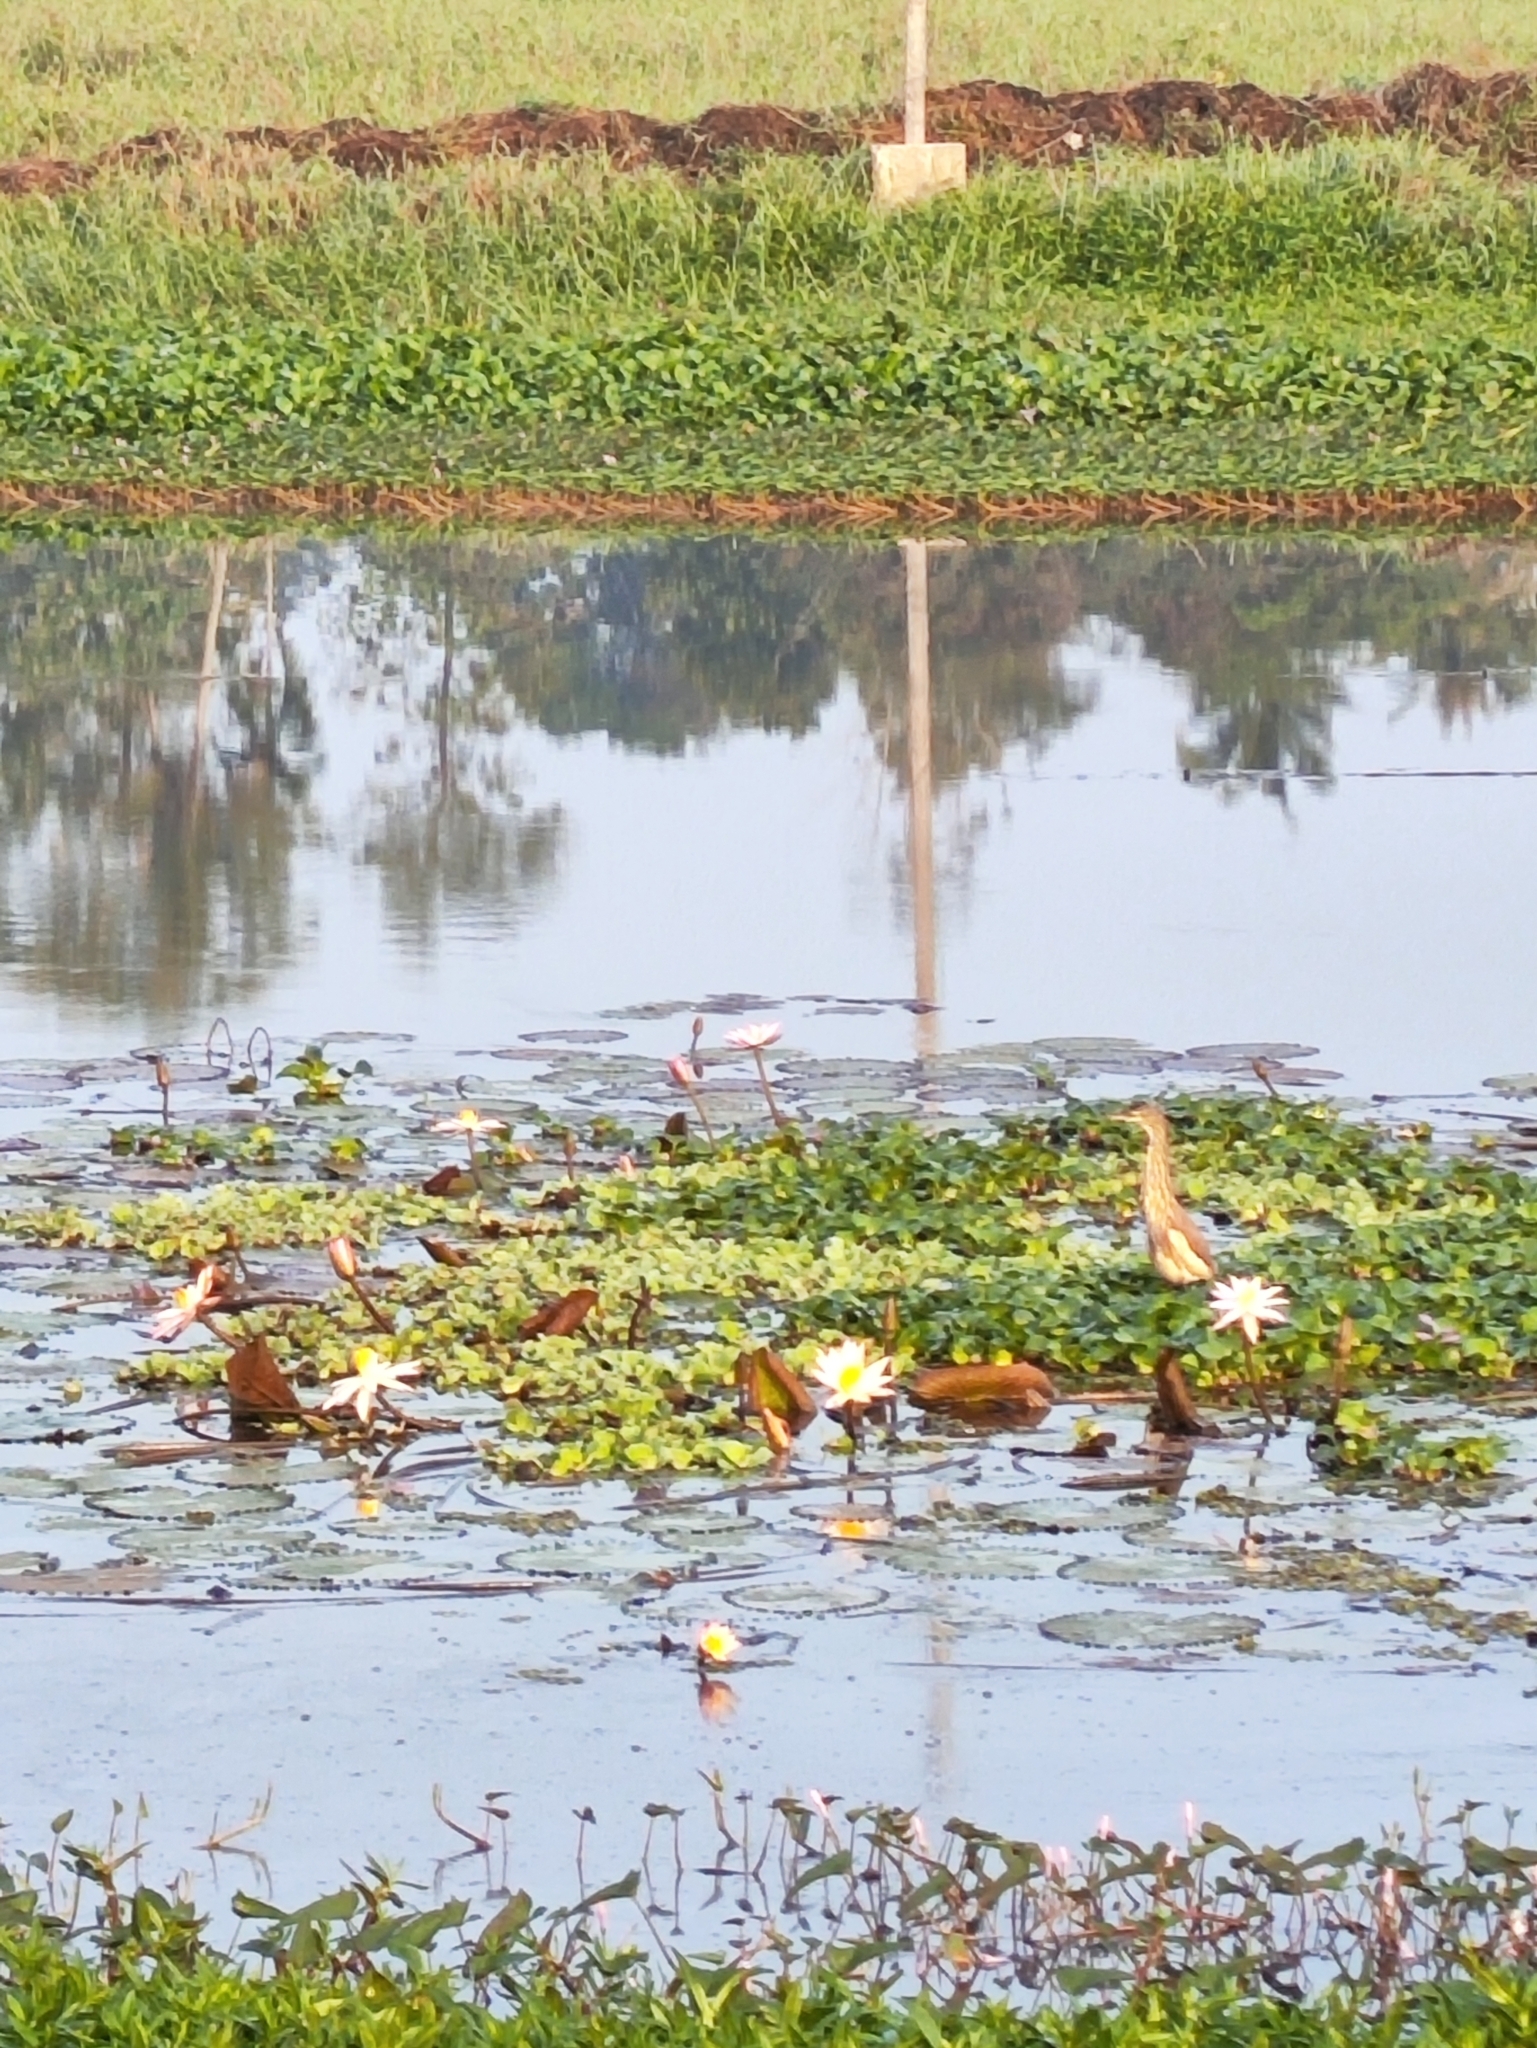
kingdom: Animalia
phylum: Chordata
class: Aves
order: Pelecaniformes
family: Ardeidae
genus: Ardeola
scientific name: Ardeola grayii
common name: Indian pond heron
